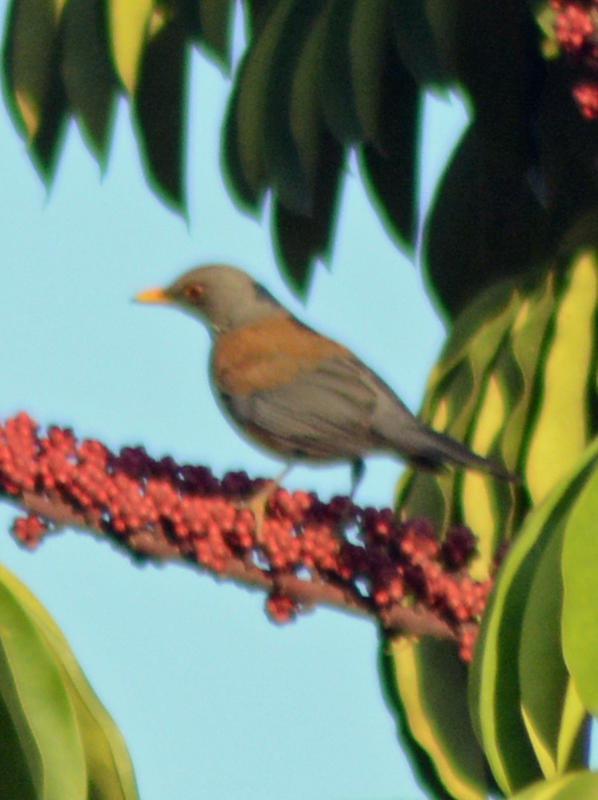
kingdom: Animalia
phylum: Chordata
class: Aves
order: Passeriformes
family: Turdidae
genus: Turdus
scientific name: Turdus rufopalliatus
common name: Rufous-backed robin
